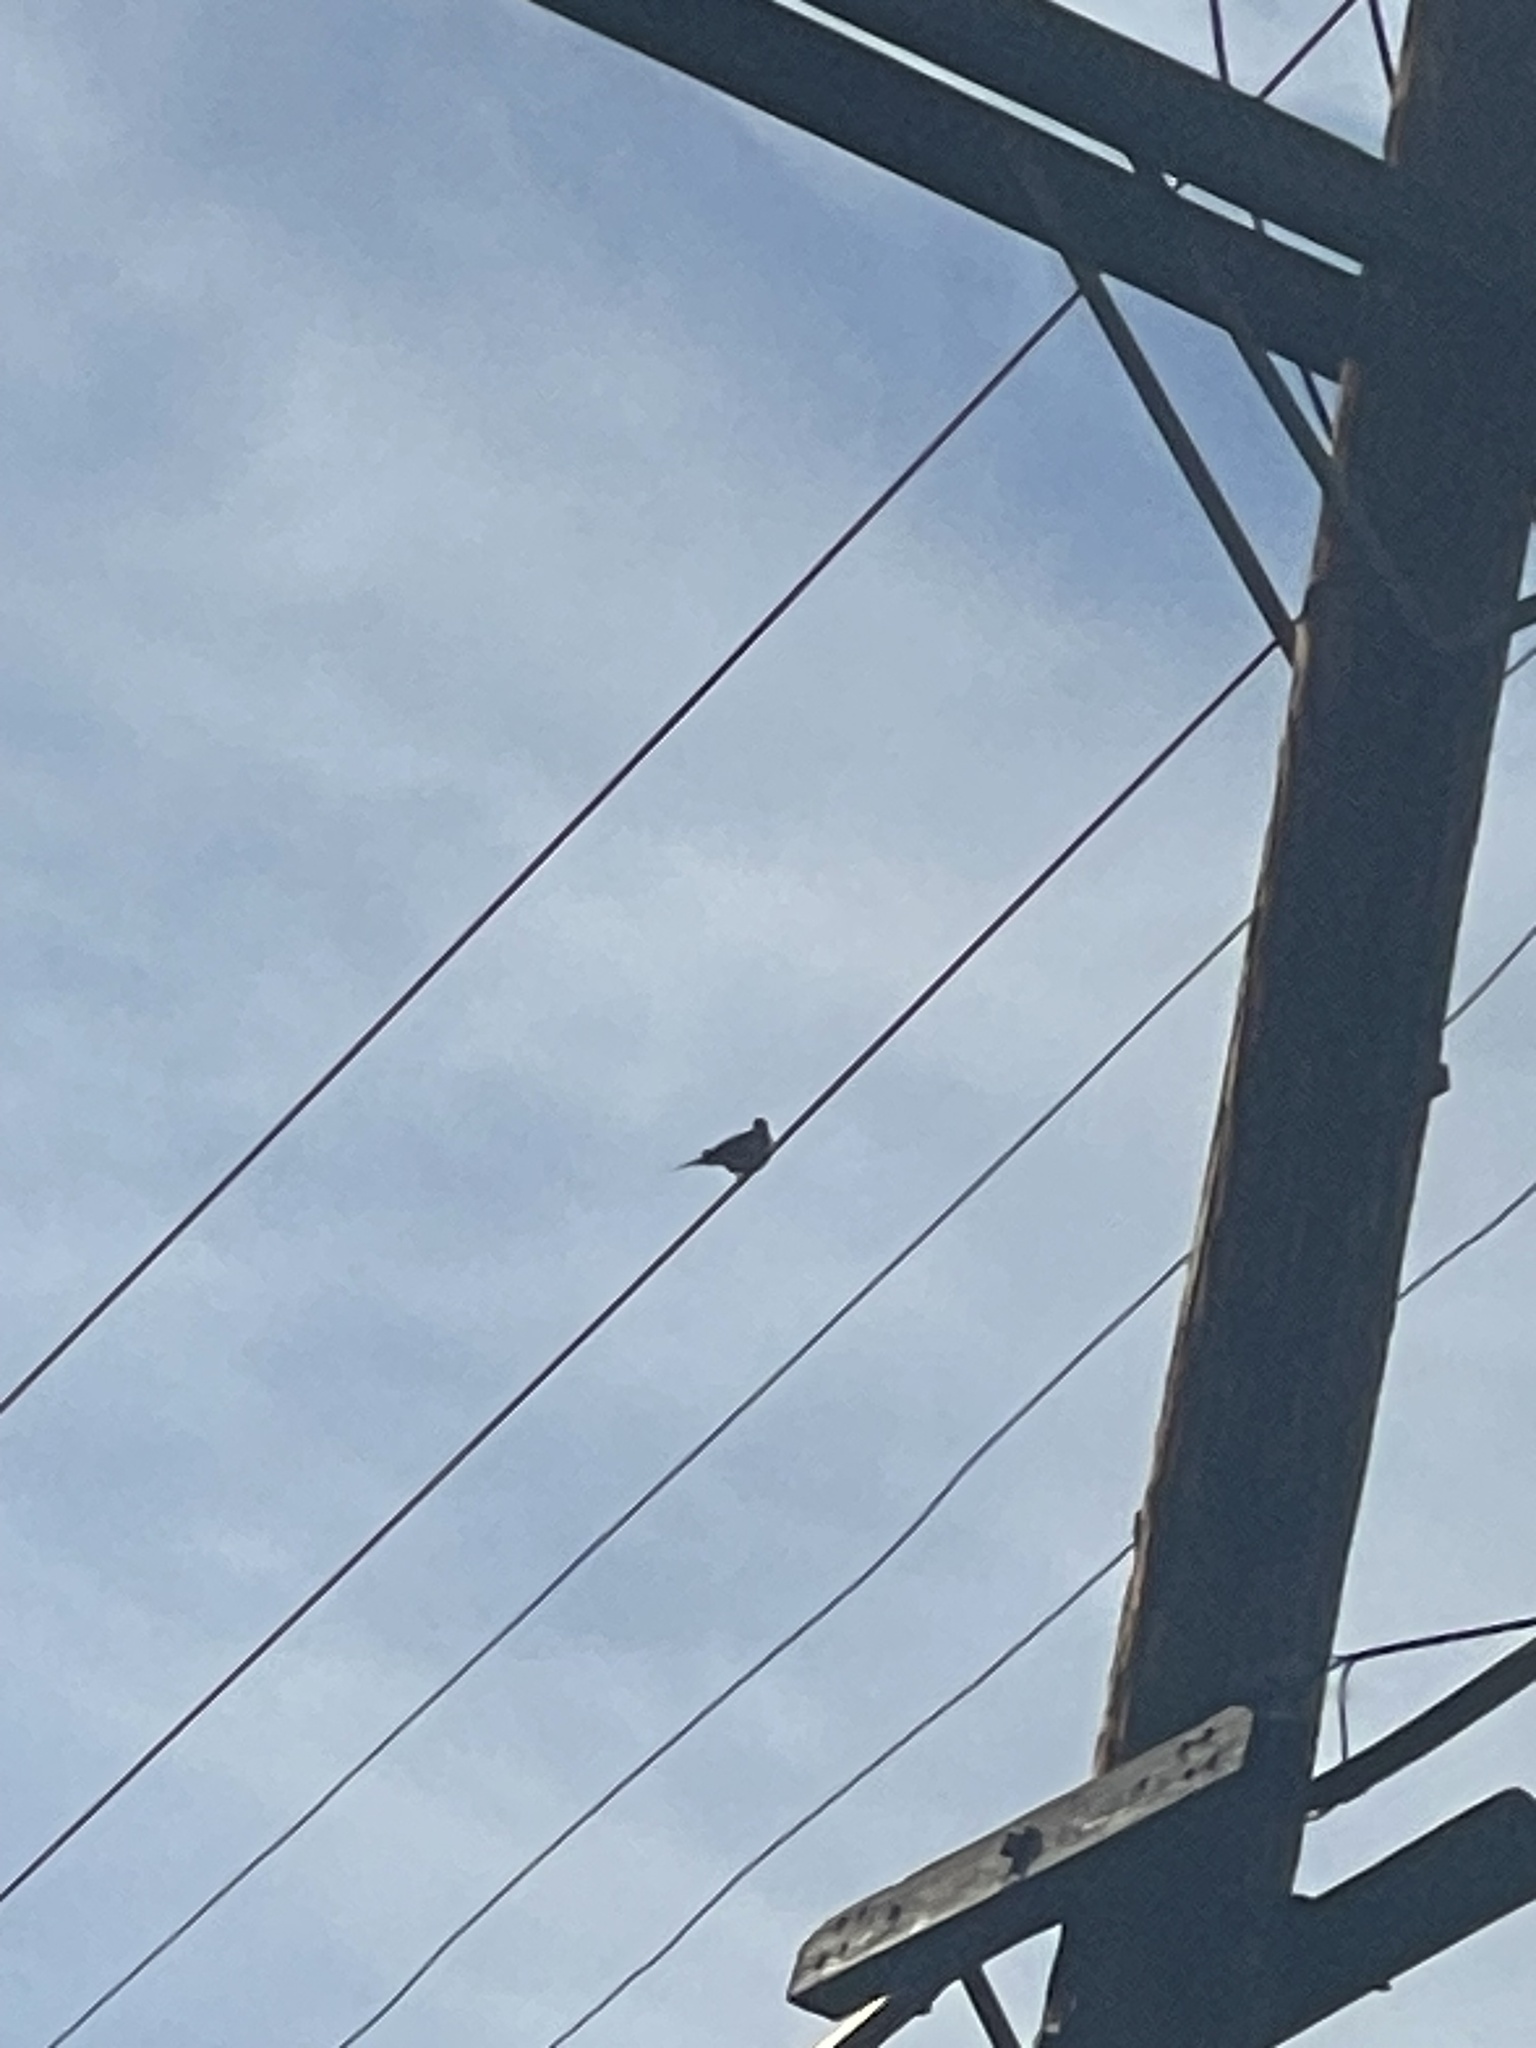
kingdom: Animalia
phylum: Chordata
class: Aves
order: Columbiformes
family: Columbidae
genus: Zenaida
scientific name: Zenaida macroura
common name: Mourning dove
